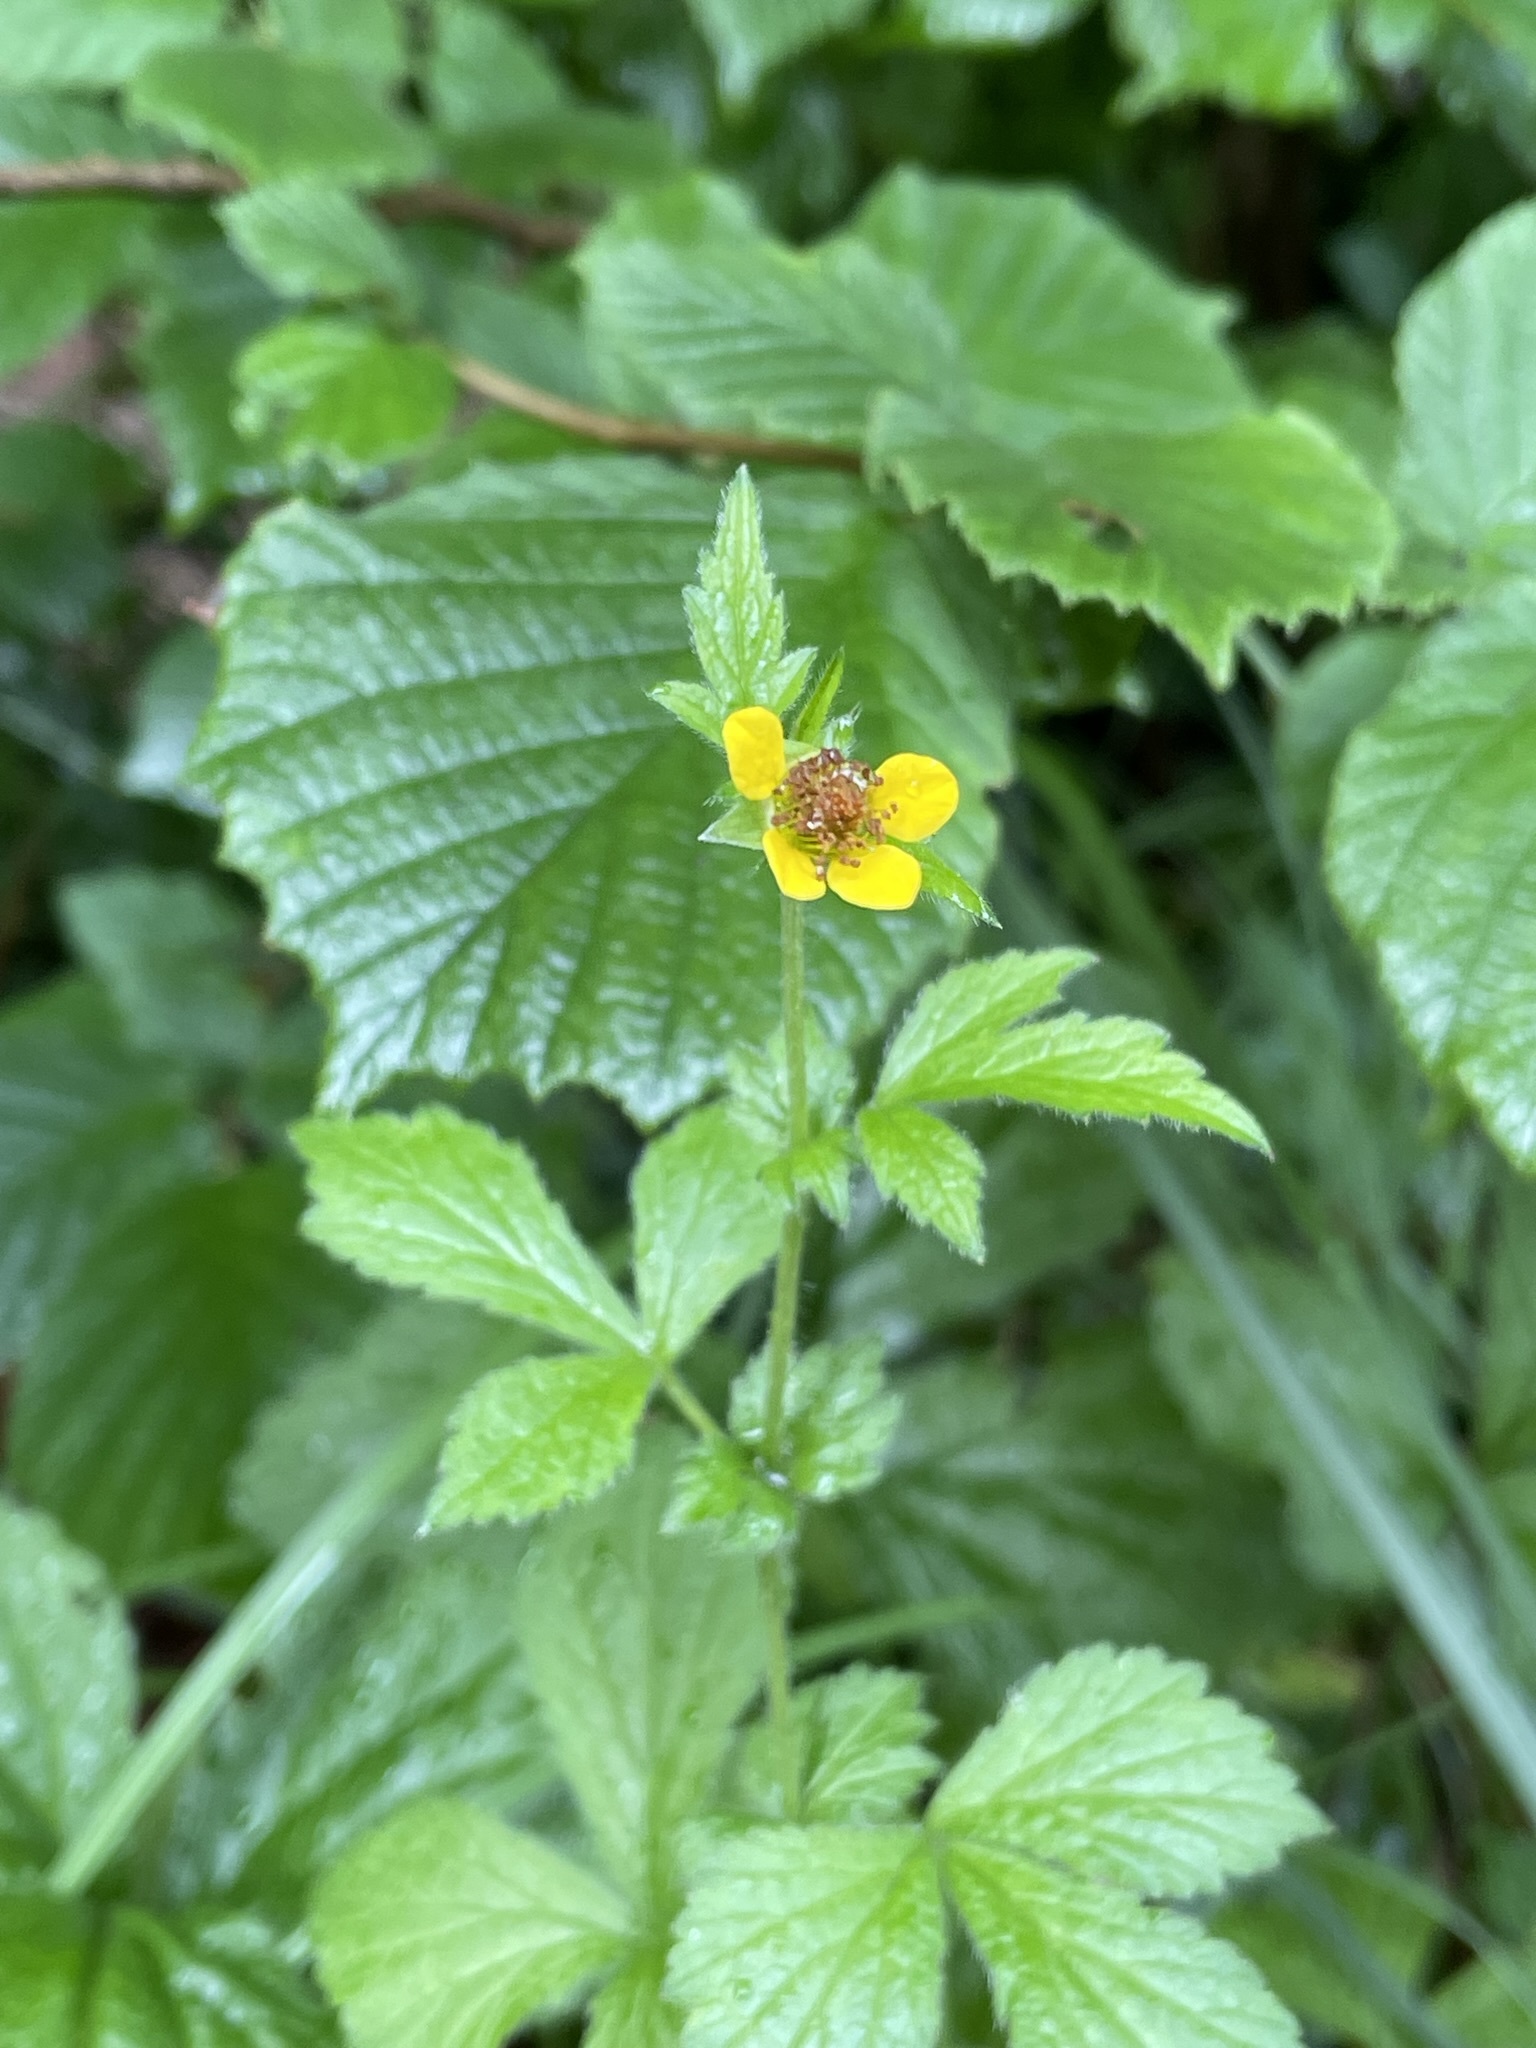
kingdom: Plantae
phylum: Tracheophyta
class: Magnoliopsida
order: Rosales
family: Rosaceae
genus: Geum
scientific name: Geum urbanum
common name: Wood avens
